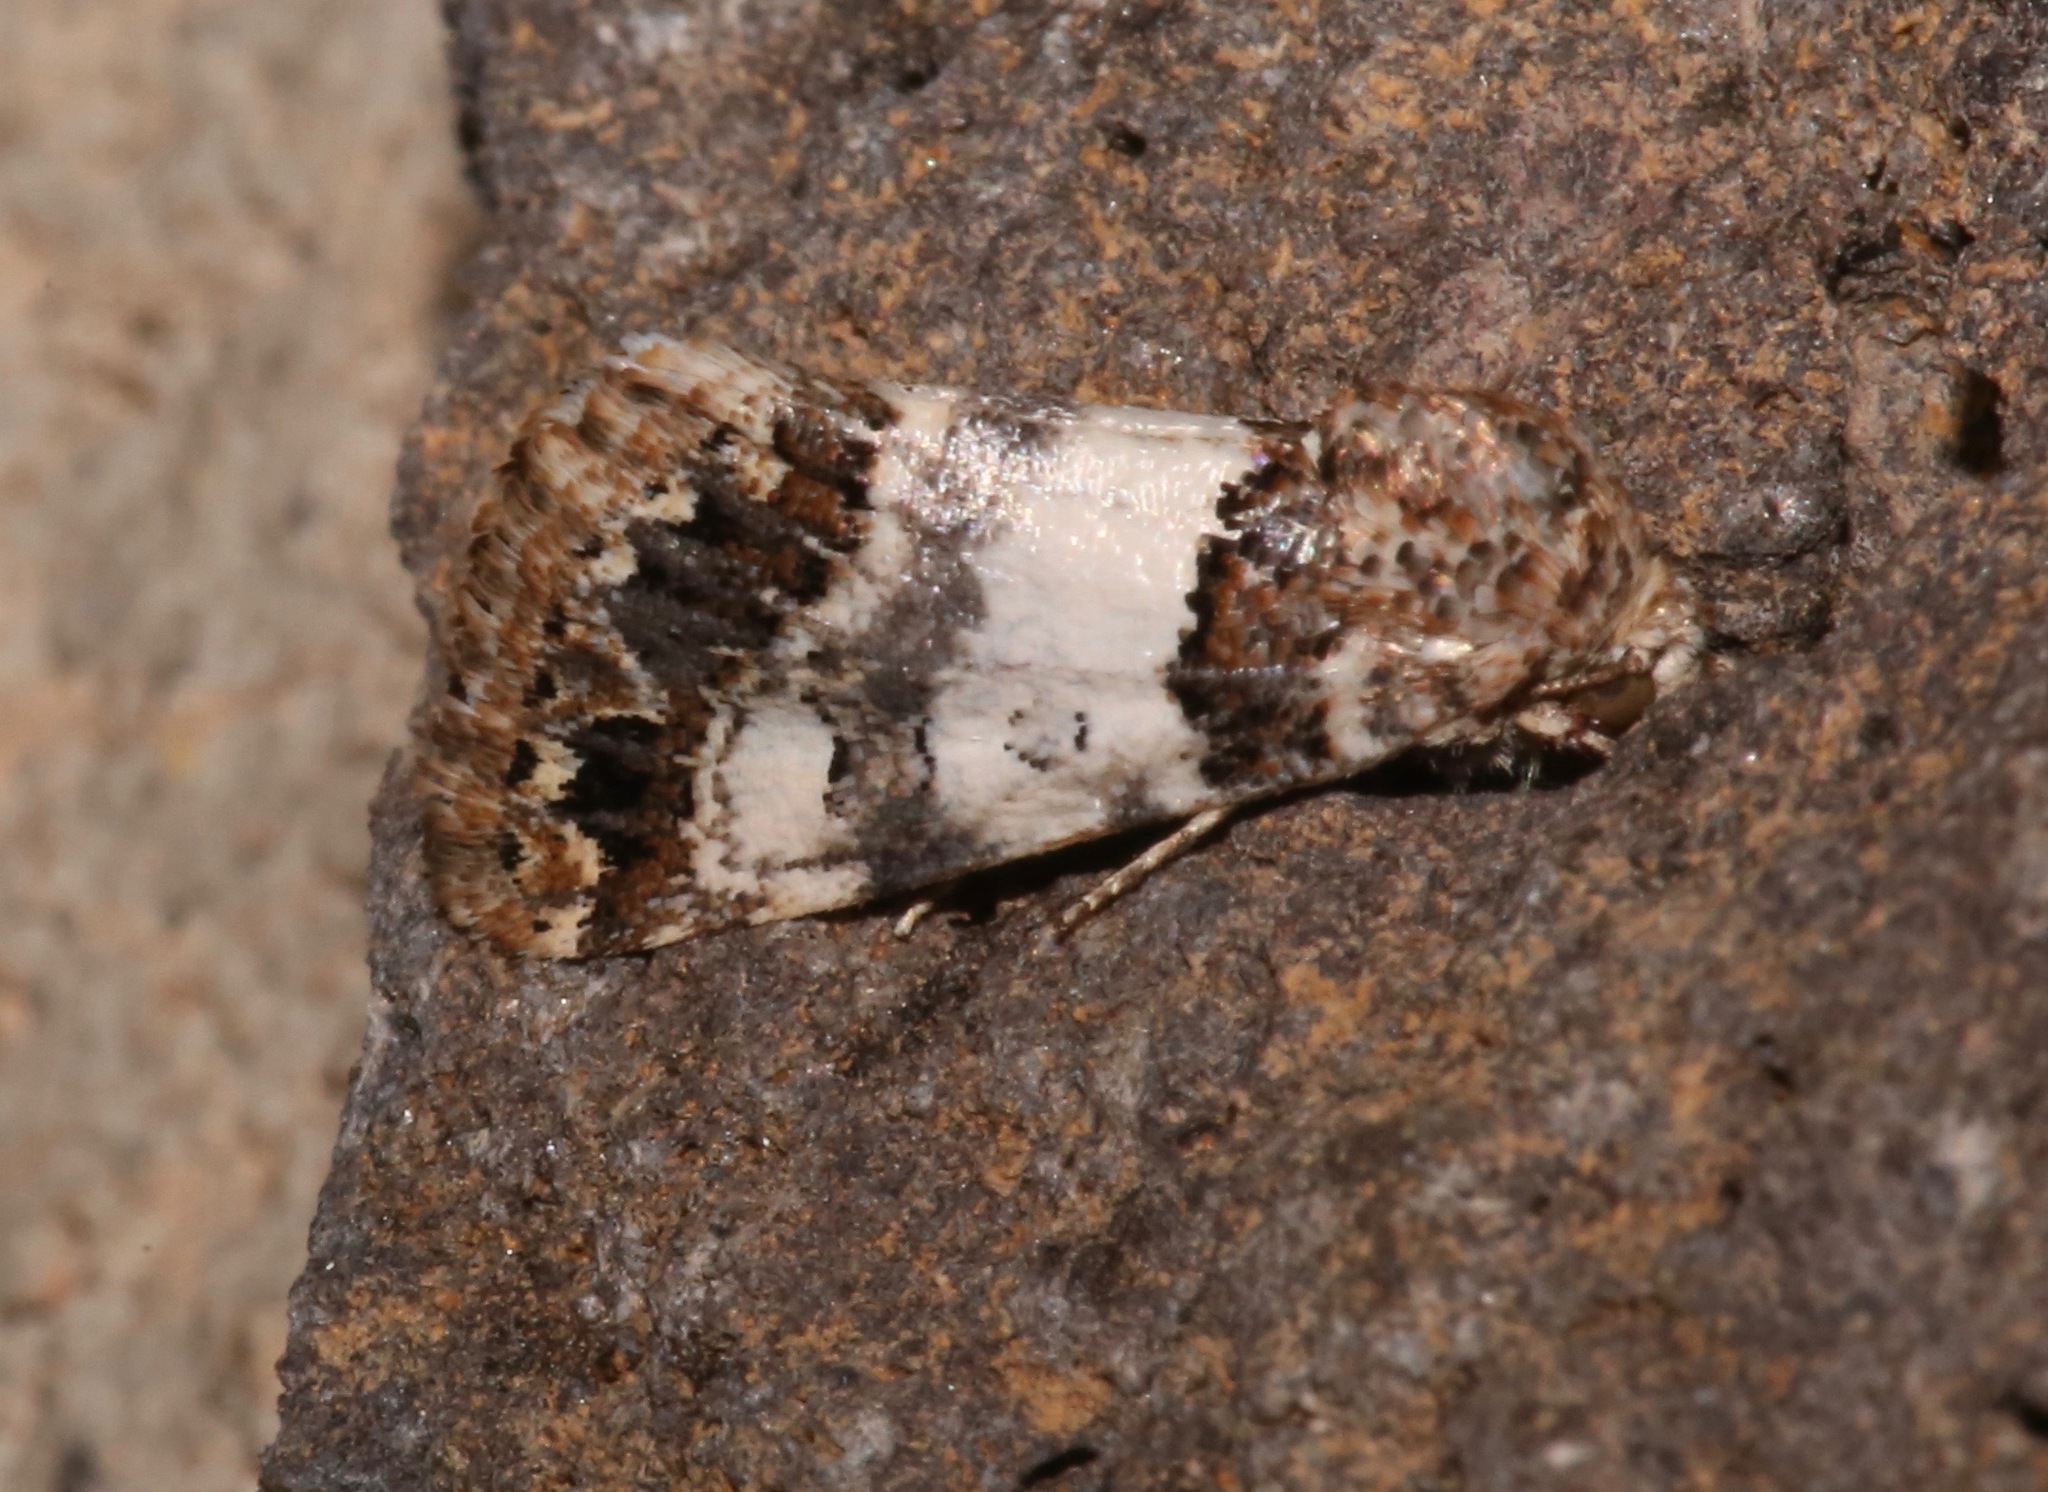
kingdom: Animalia
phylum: Arthropoda
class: Insecta
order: Lepidoptera
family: Noctuidae
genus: Schinia
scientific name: Schinia albafascia
